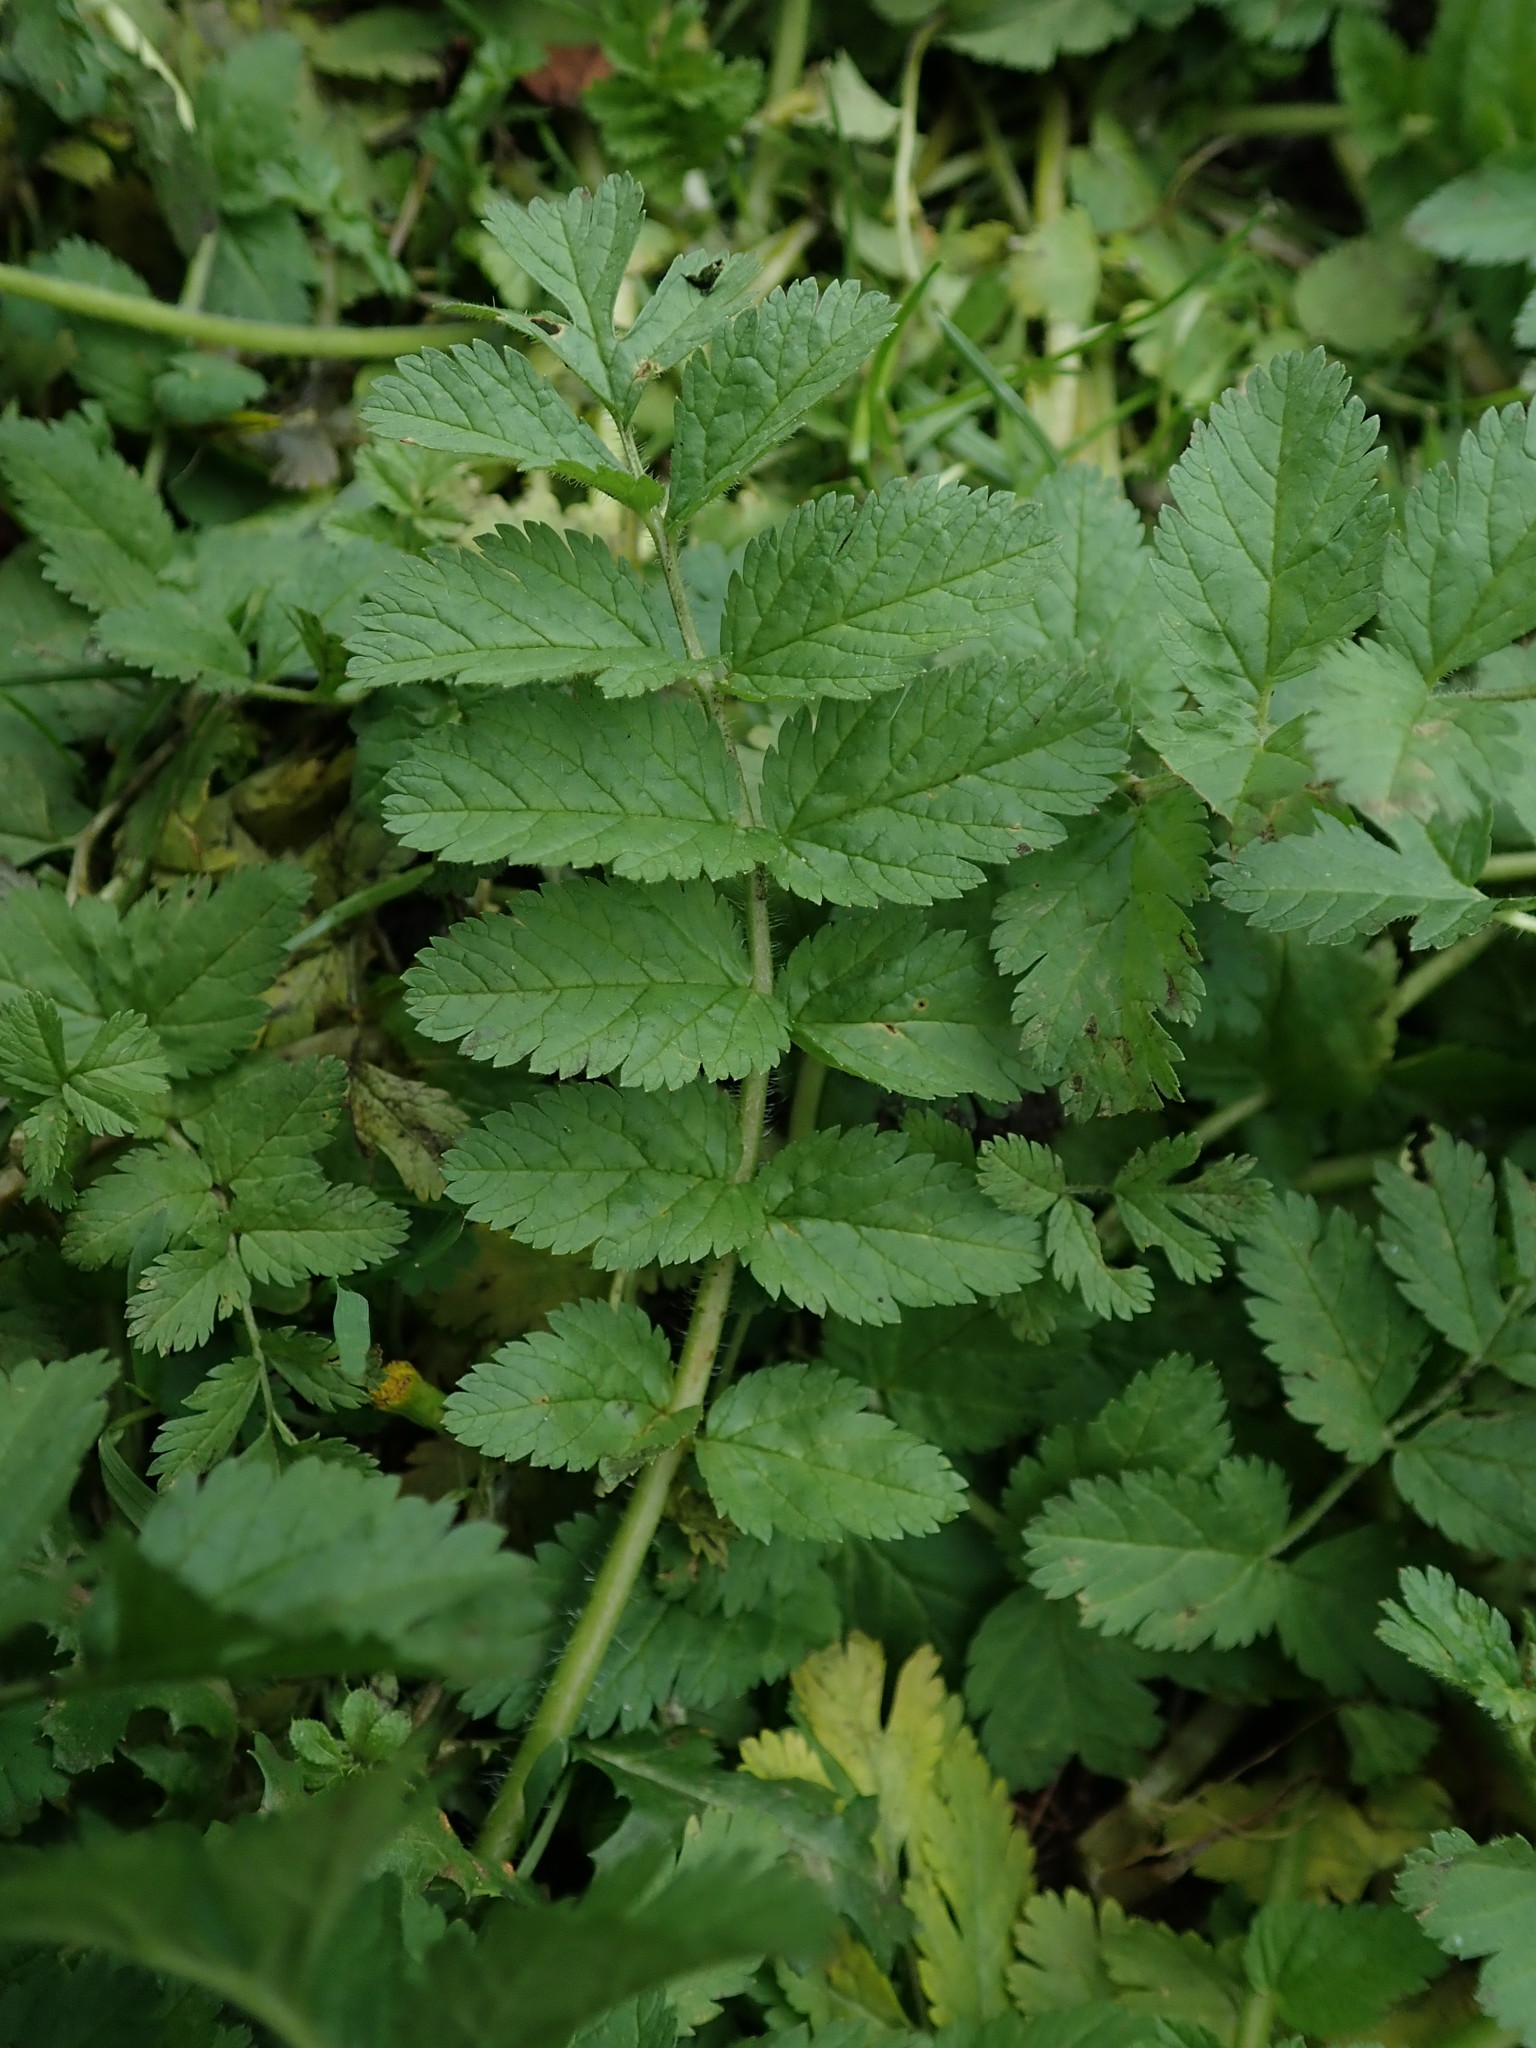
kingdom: Plantae
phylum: Tracheophyta
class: Magnoliopsida
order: Geraniales
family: Geraniaceae
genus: Erodium
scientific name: Erodium moschatum
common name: Musk stork's-bill
